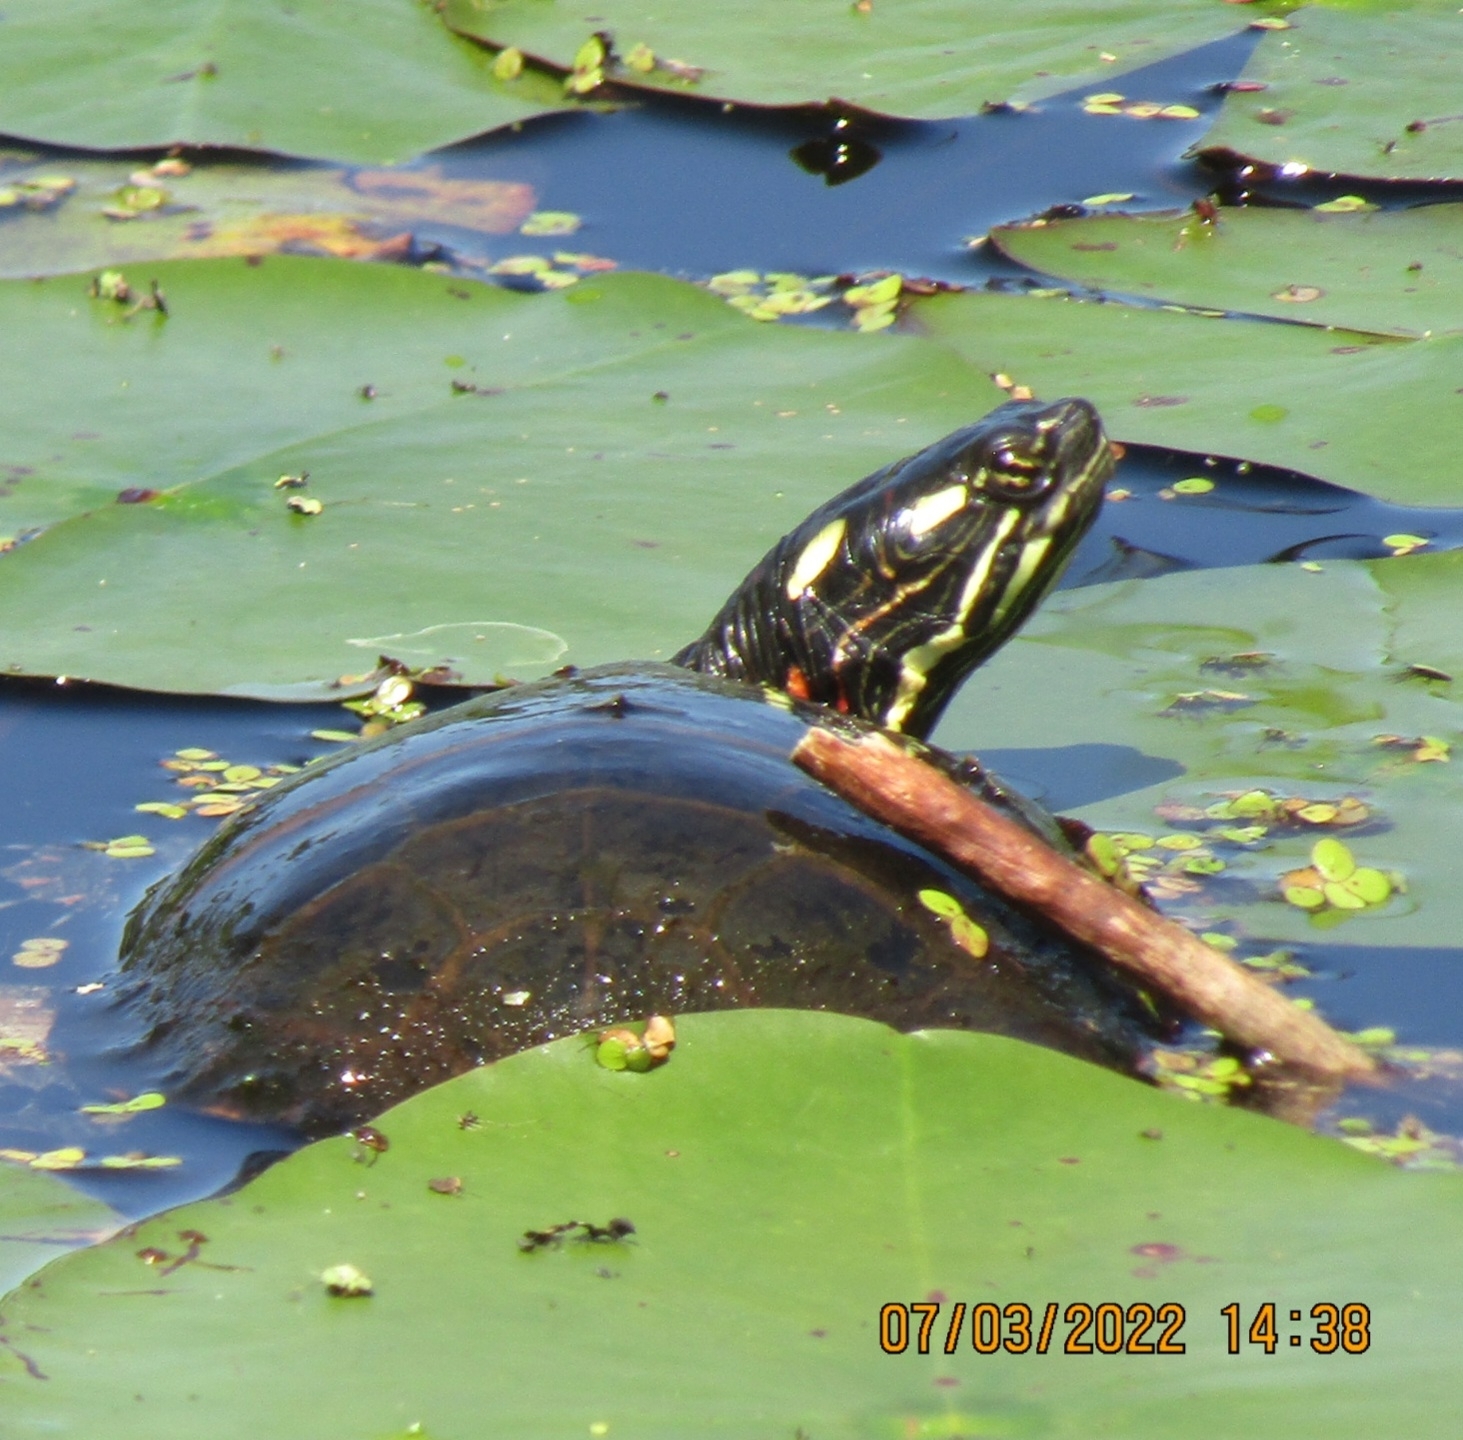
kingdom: Animalia
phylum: Chordata
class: Testudines
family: Emydidae
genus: Chrysemys
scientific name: Chrysemys picta
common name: Painted turtle
